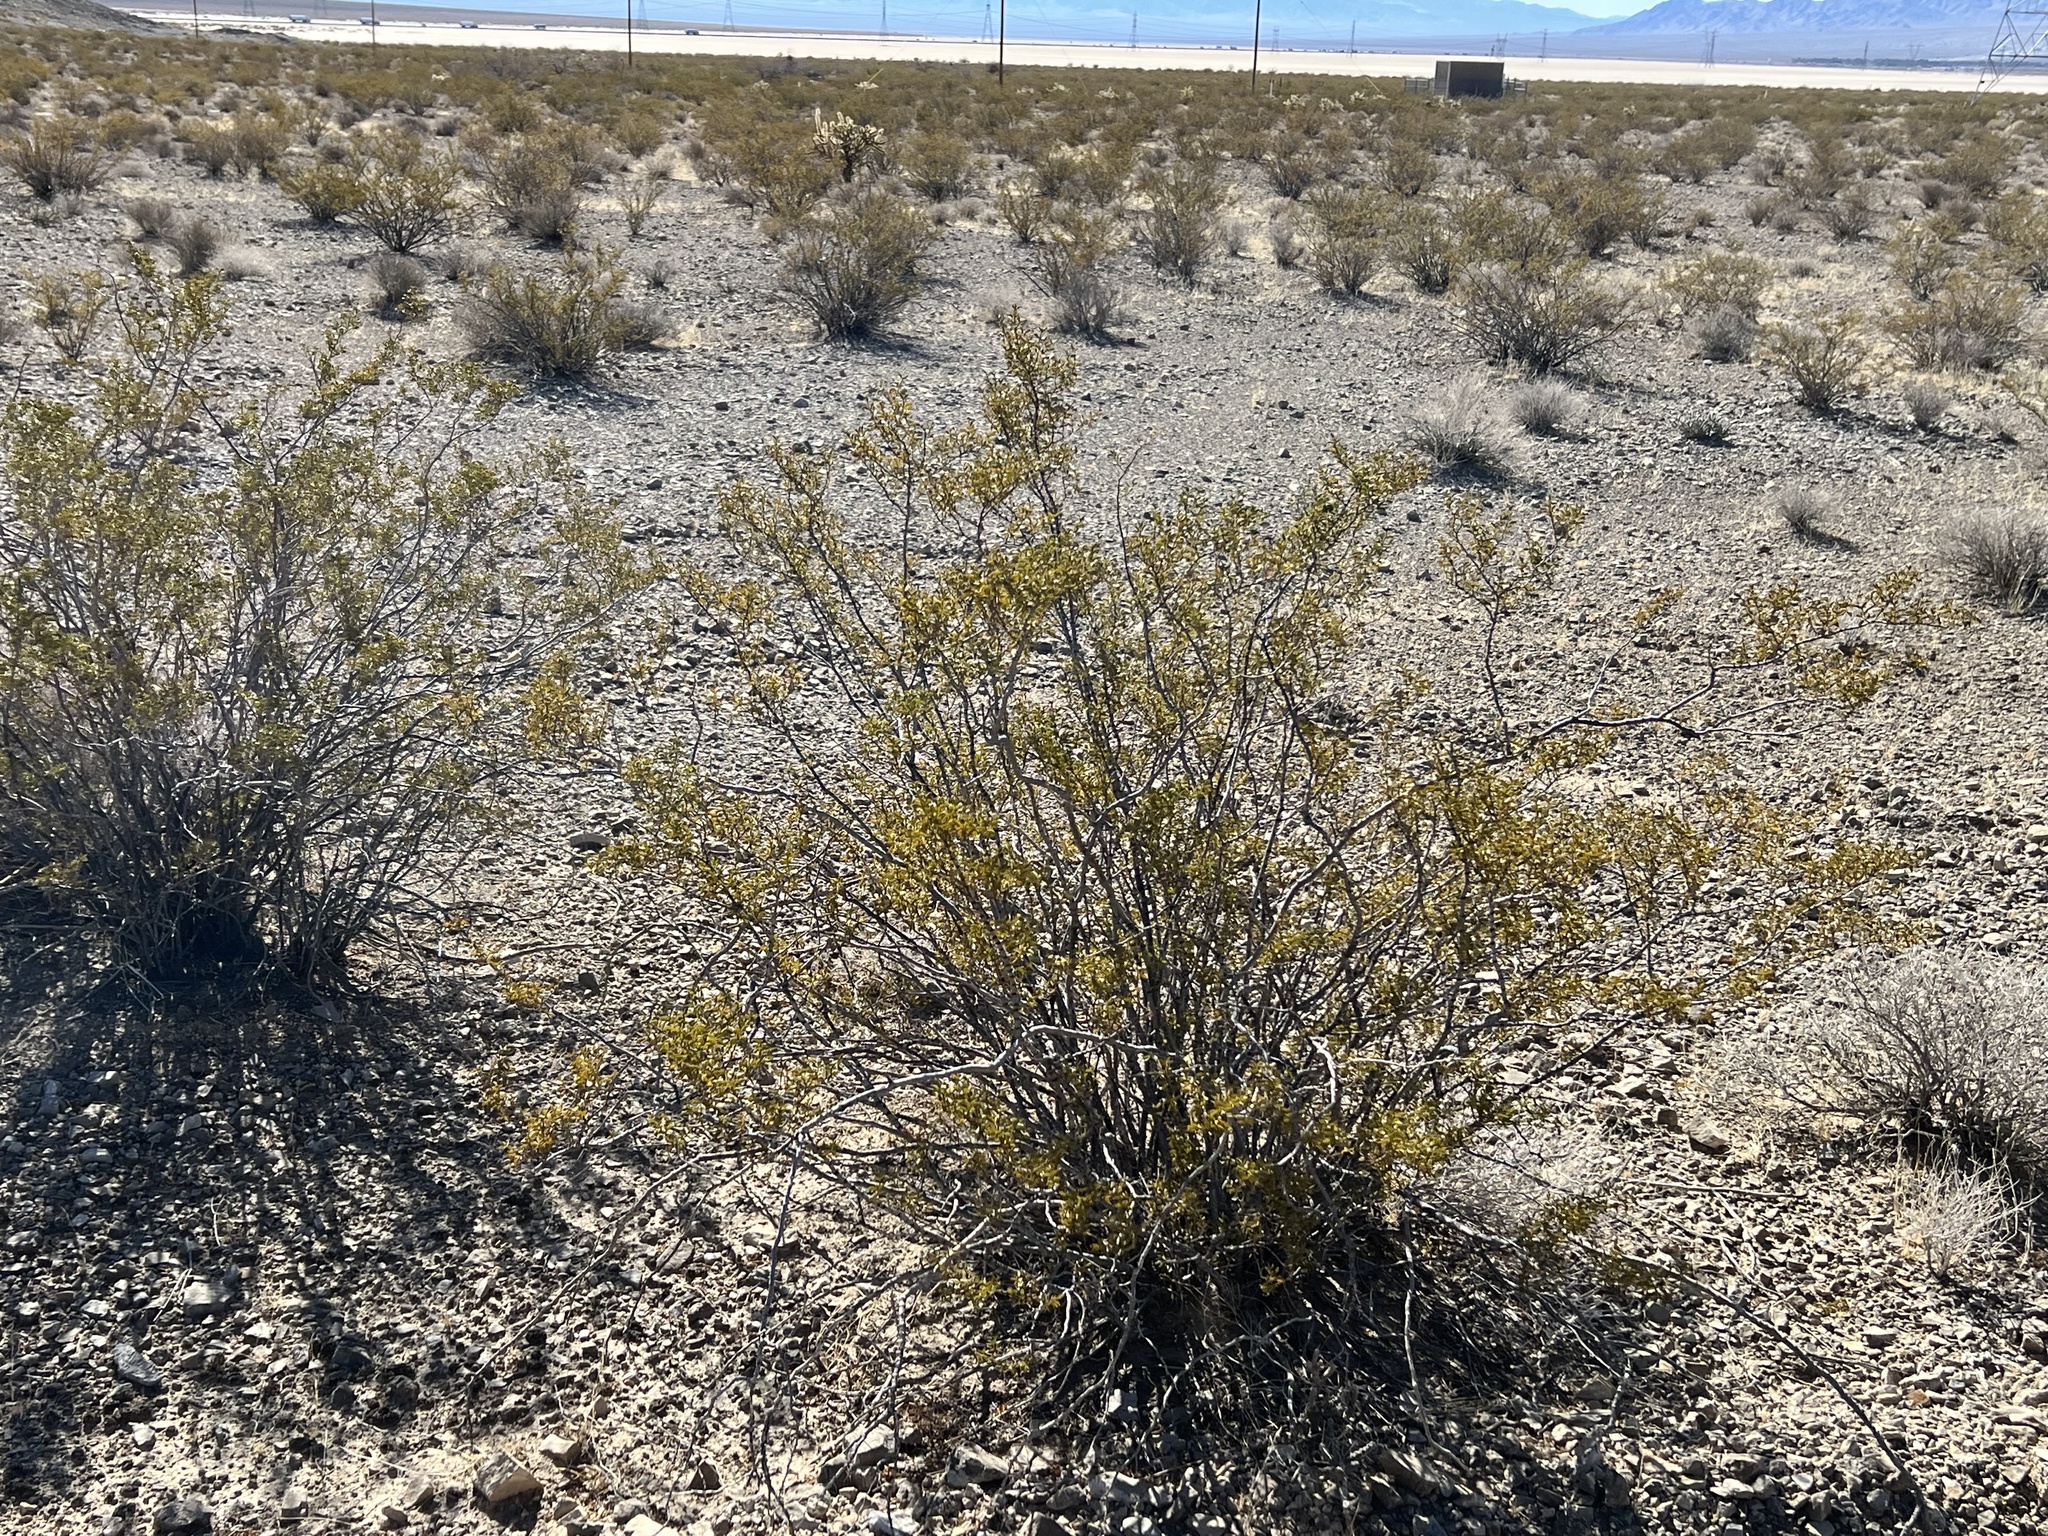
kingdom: Plantae
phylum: Tracheophyta
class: Magnoliopsida
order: Zygophyllales
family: Zygophyllaceae
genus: Larrea
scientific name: Larrea tridentata
